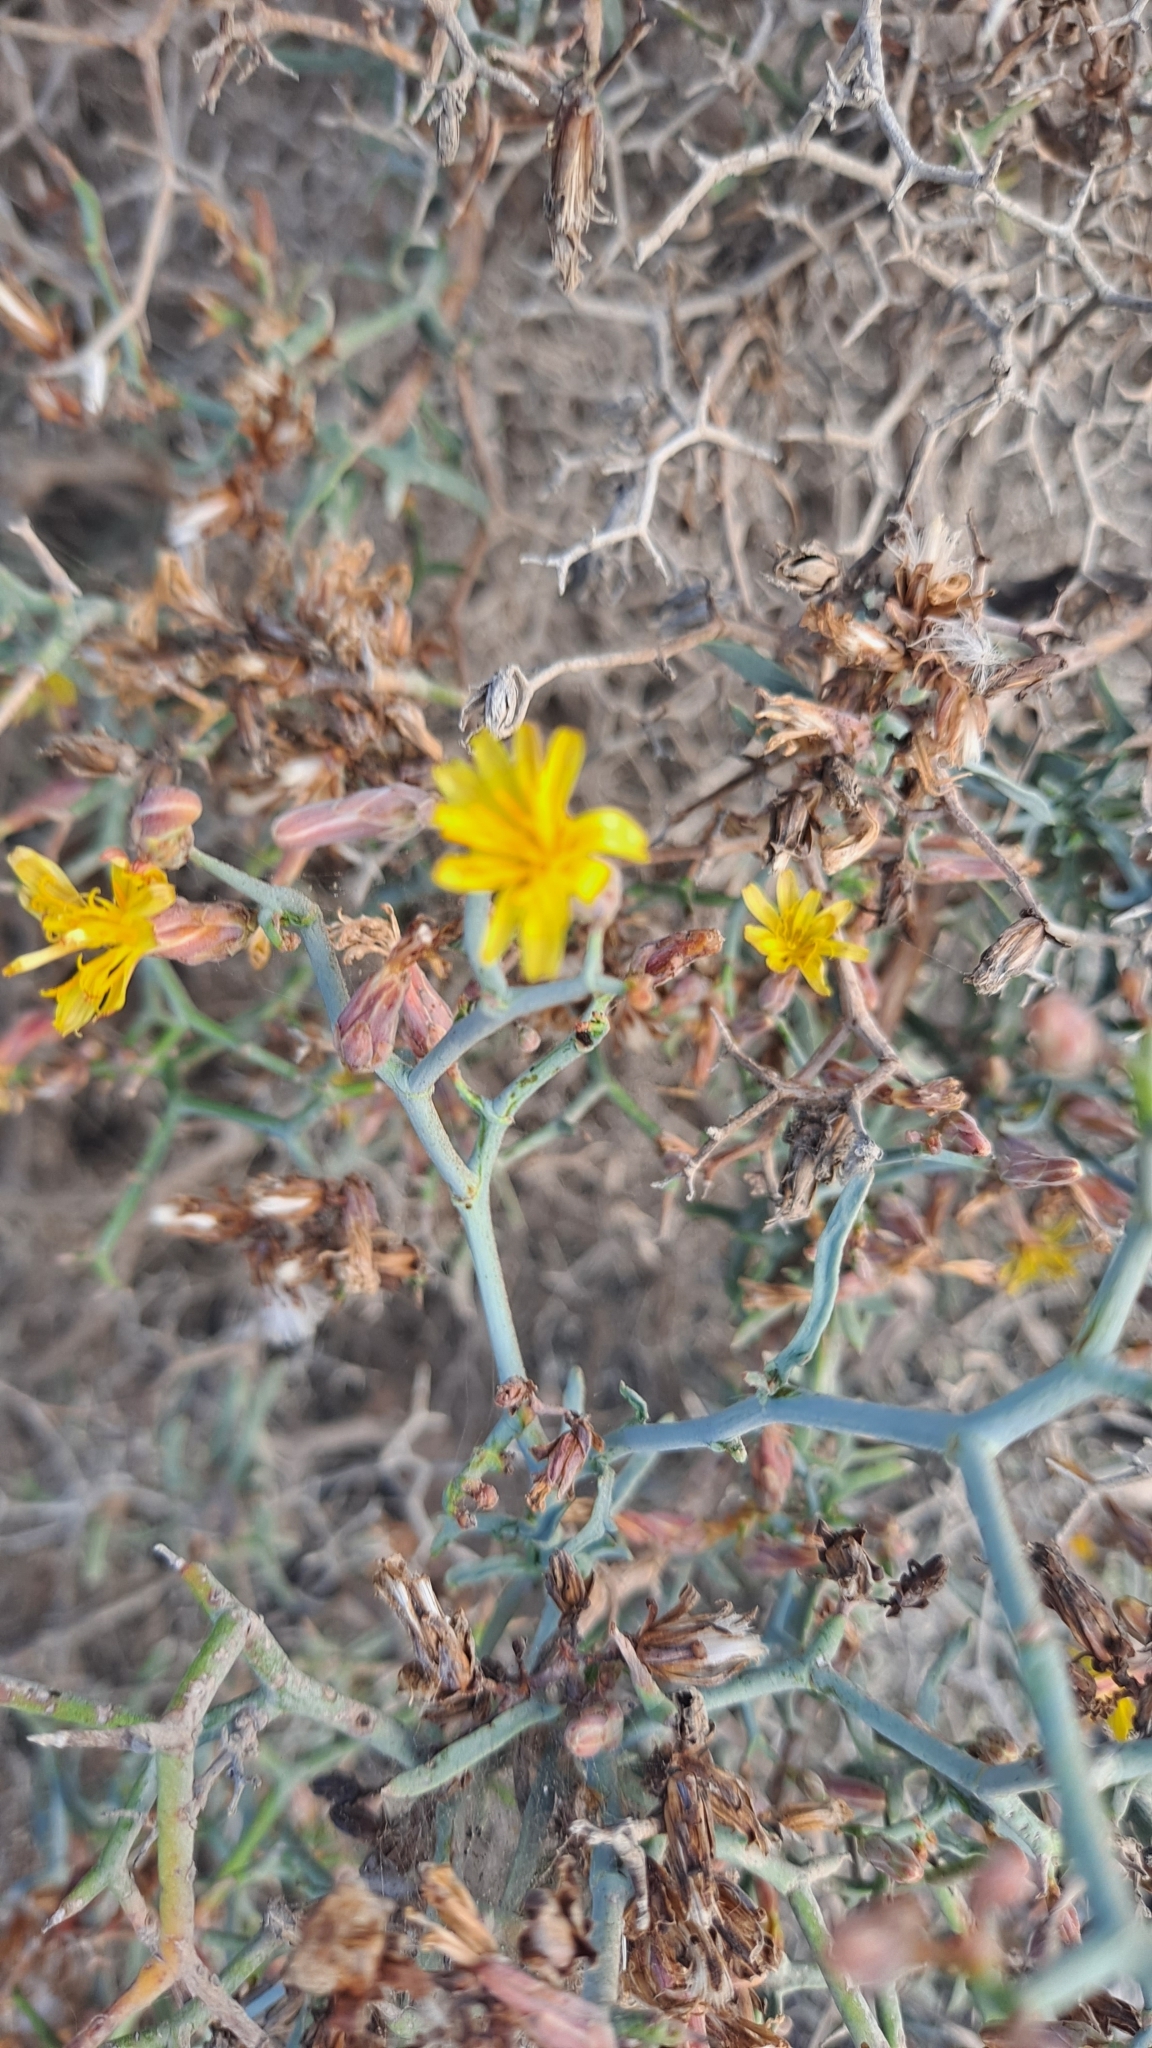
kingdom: Plantae
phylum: Tracheophyta
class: Magnoliopsida
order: Asterales
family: Asteraceae
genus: Launaea
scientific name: Launaea arborescens
